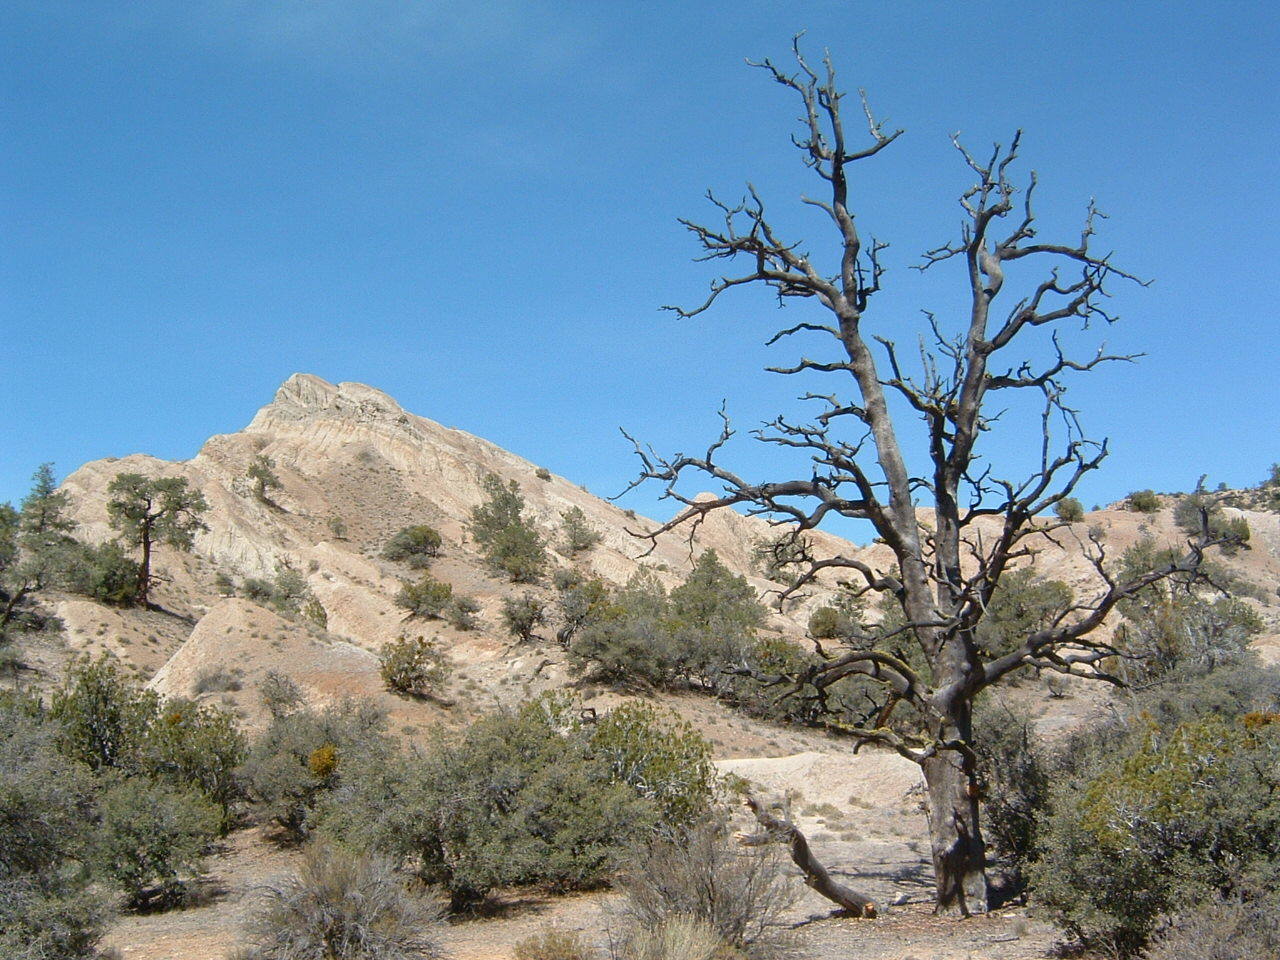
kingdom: Plantae
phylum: Tracheophyta
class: Pinopsida
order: Pinales
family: Pinaceae
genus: Pinus
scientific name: Pinus monophylla
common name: One-leaved nut pine
